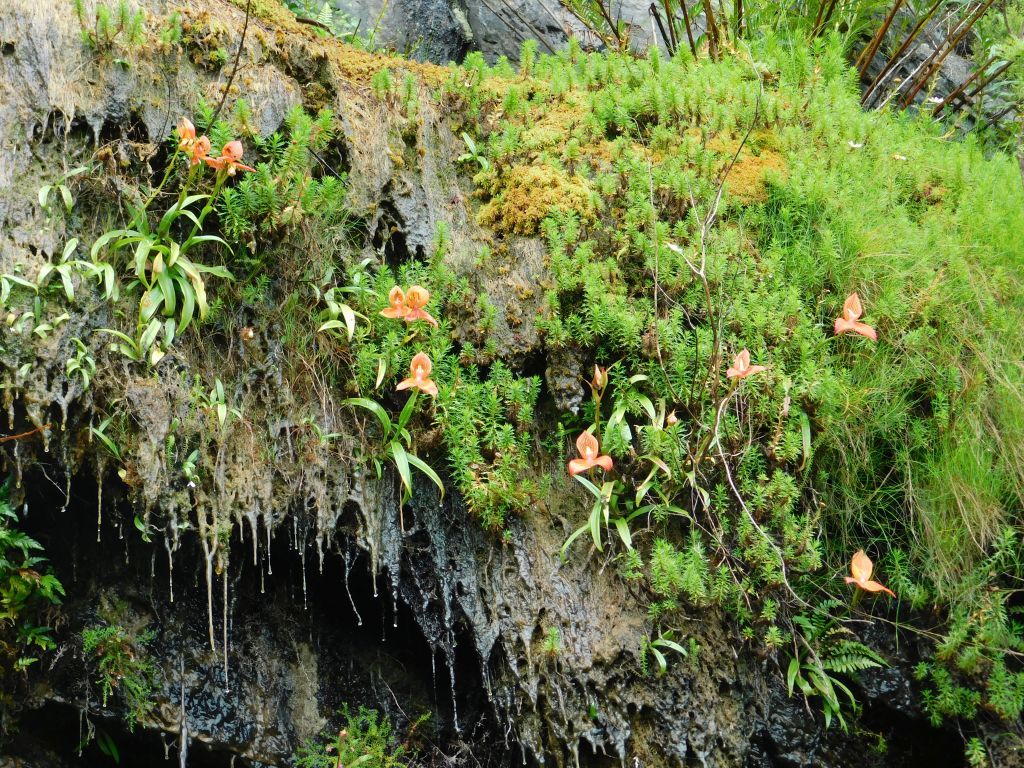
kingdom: Plantae
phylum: Tracheophyta
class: Liliopsida
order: Asparagales
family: Orchidaceae
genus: Disa
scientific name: Disa uniflora
